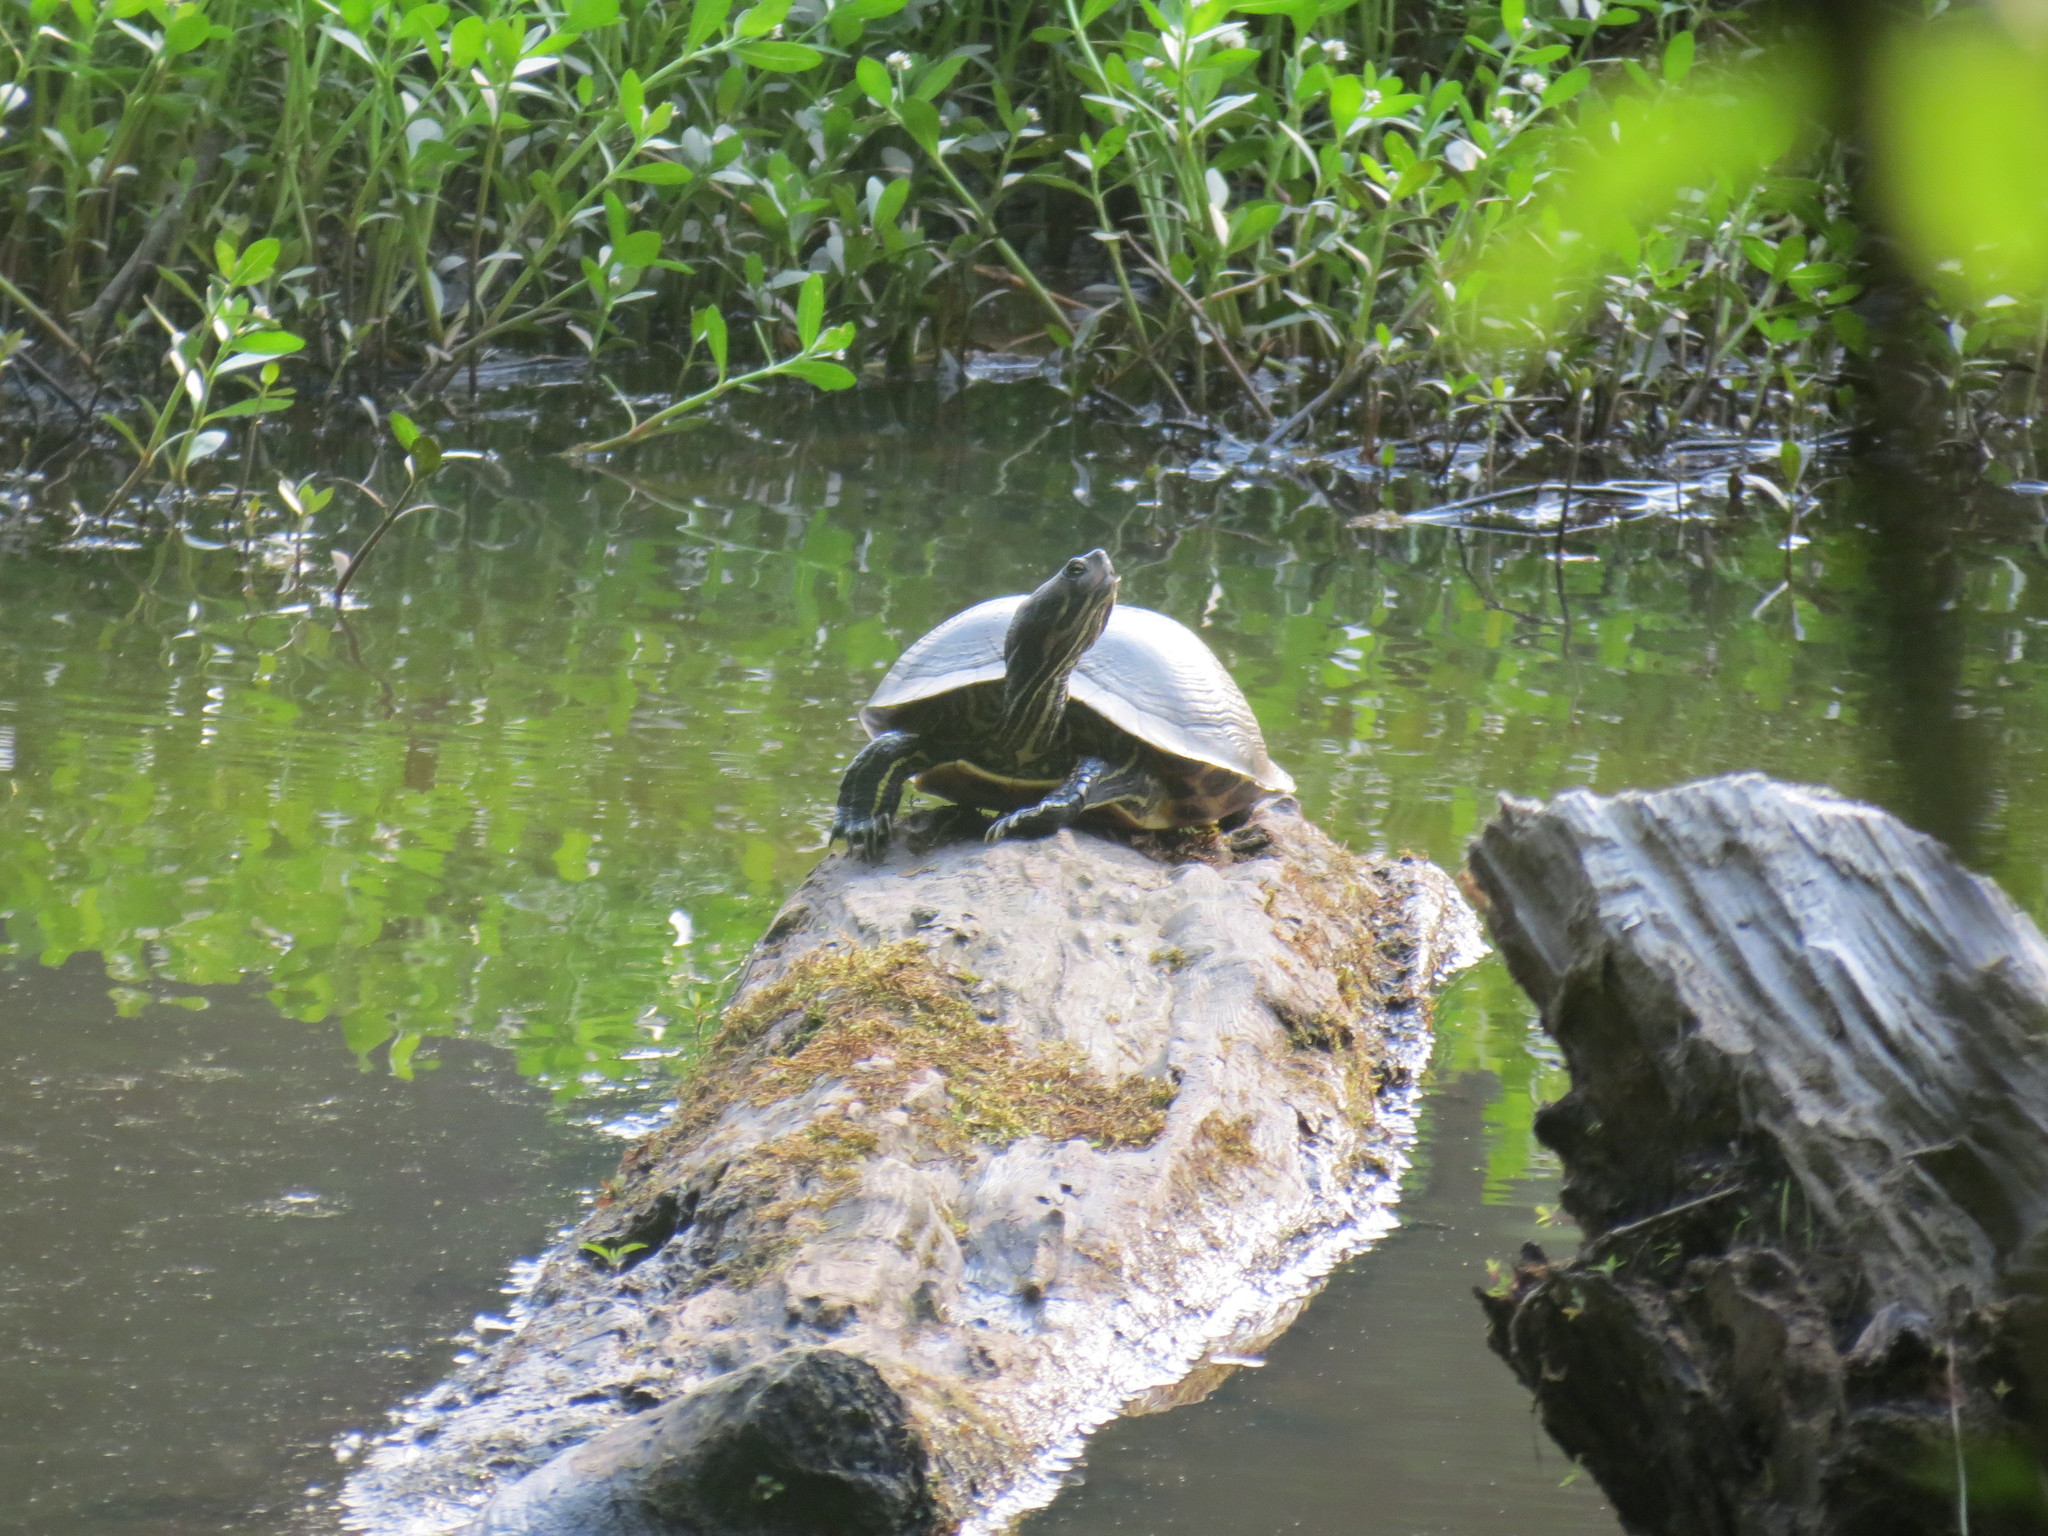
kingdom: Animalia
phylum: Chordata
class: Testudines
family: Emydidae
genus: Trachemys
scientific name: Trachemys scripta
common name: Slider
